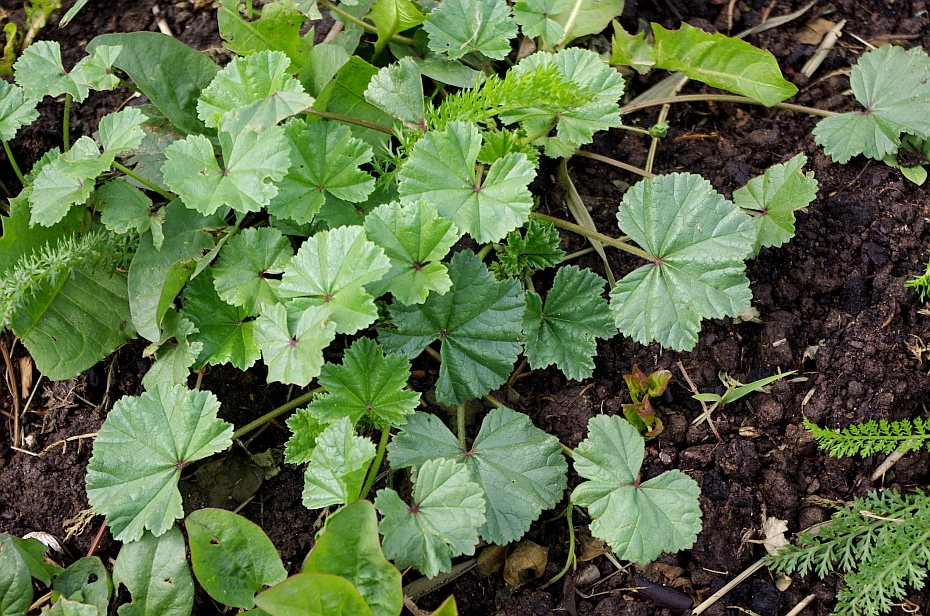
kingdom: Plantae
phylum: Tracheophyta
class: Magnoliopsida
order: Malvales
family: Malvaceae
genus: Malva
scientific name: Malva pusilla
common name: Small mallow
